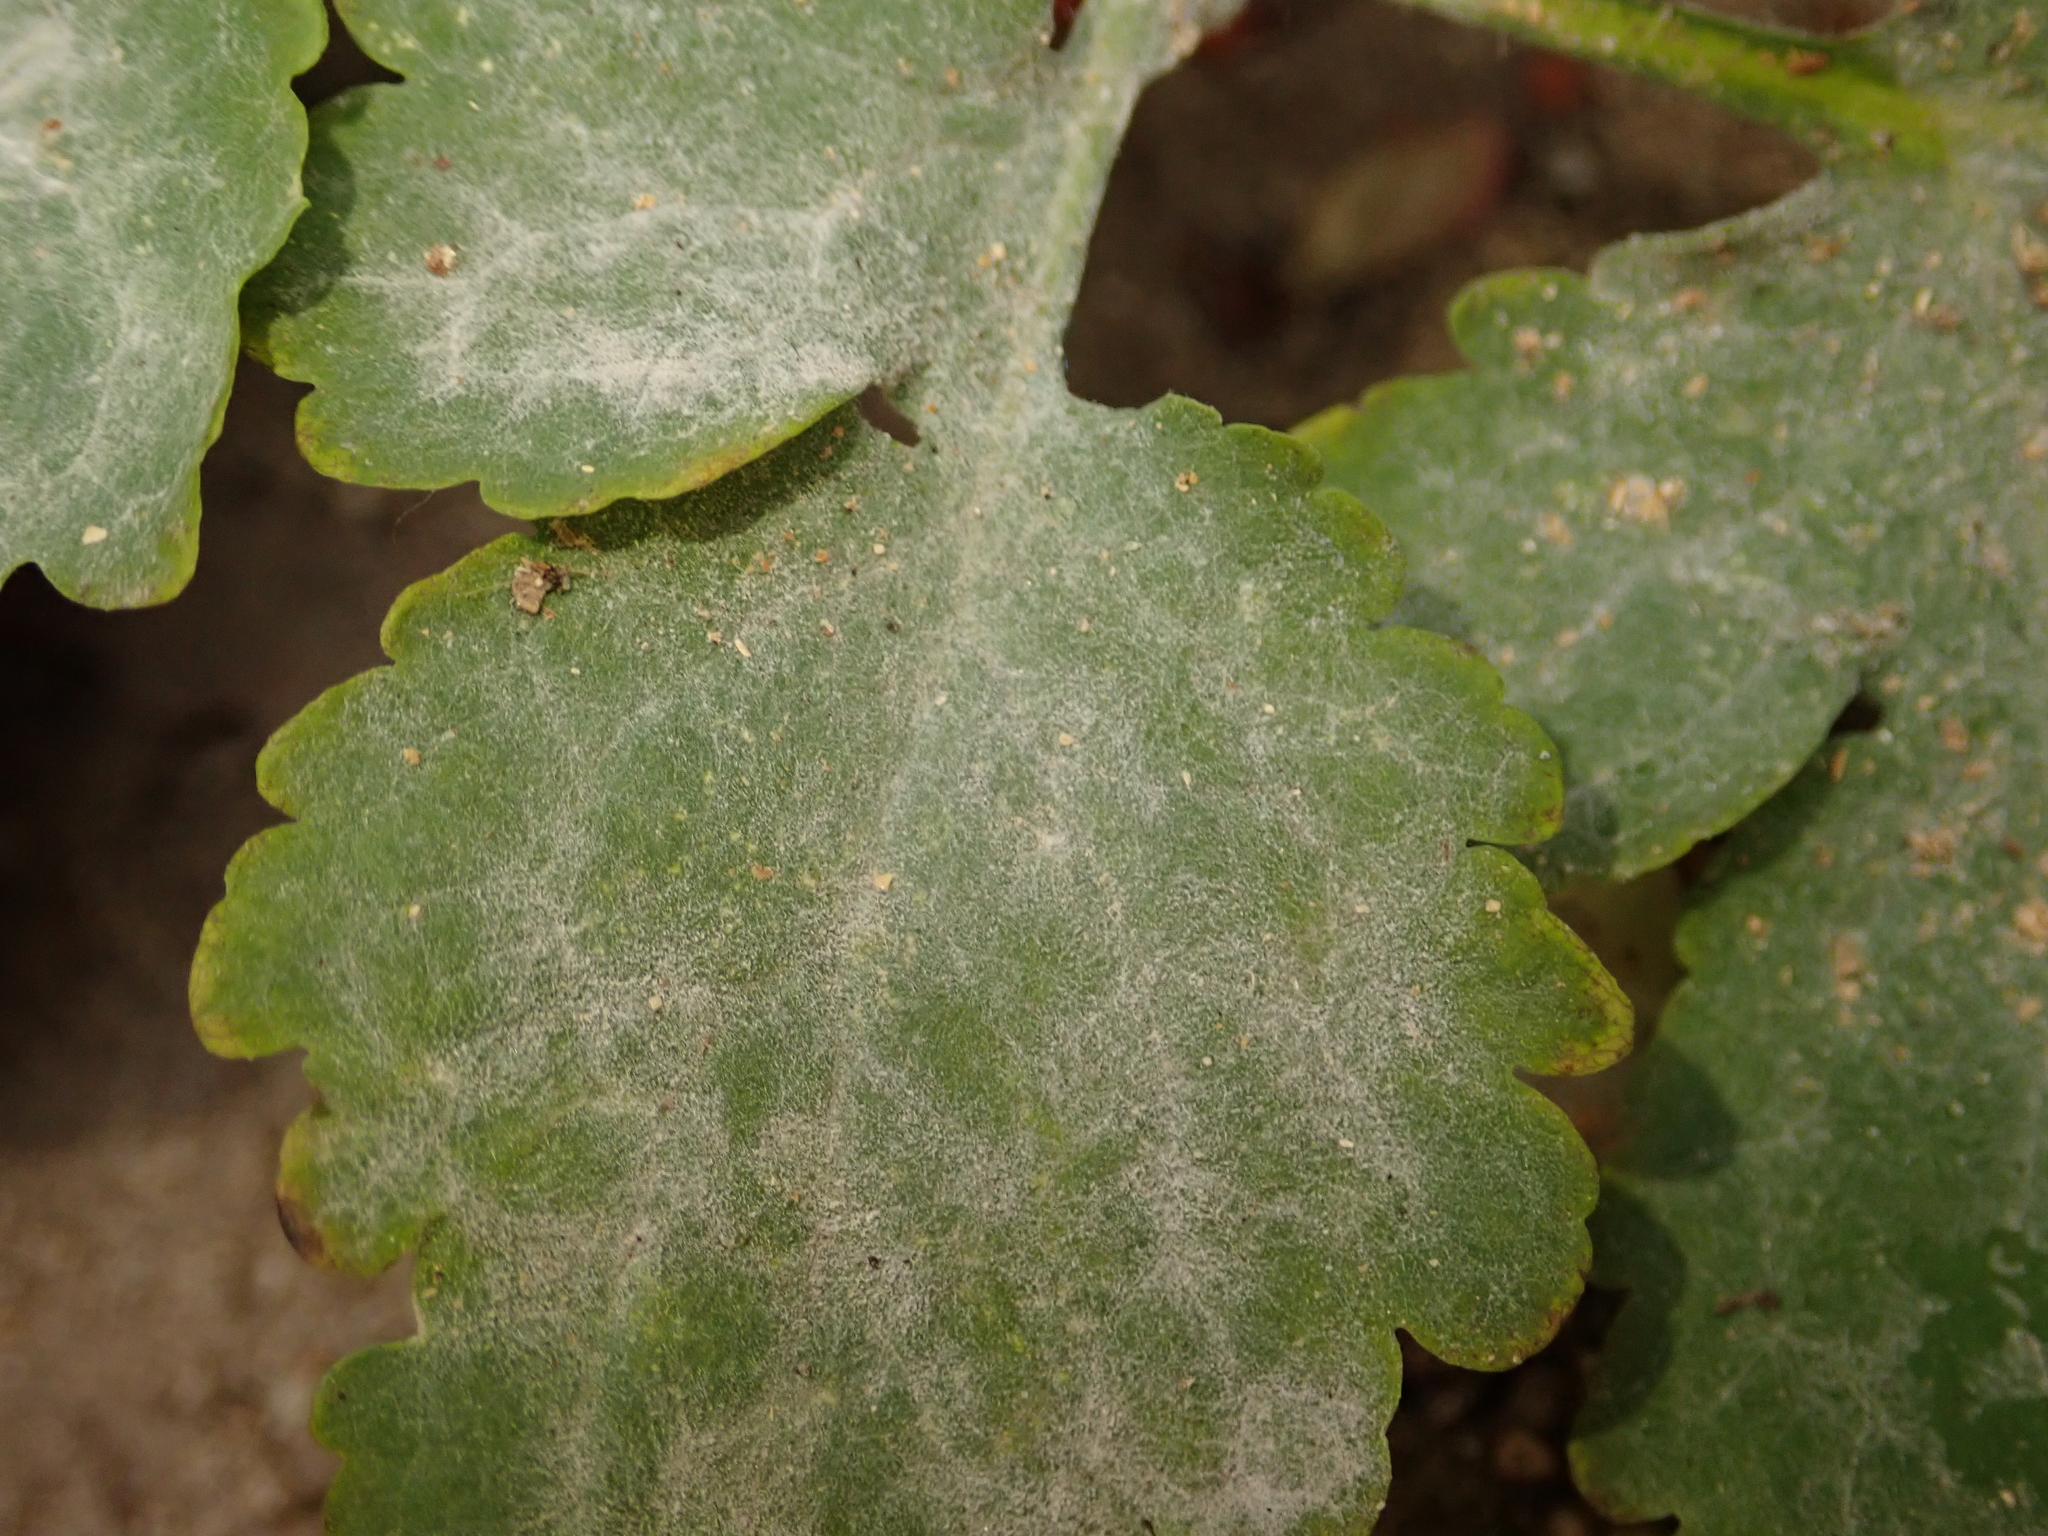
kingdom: Fungi
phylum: Ascomycota
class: Leotiomycetes
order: Helotiales
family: Erysiphaceae
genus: Erysiphe
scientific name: Erysiphe macleayae
